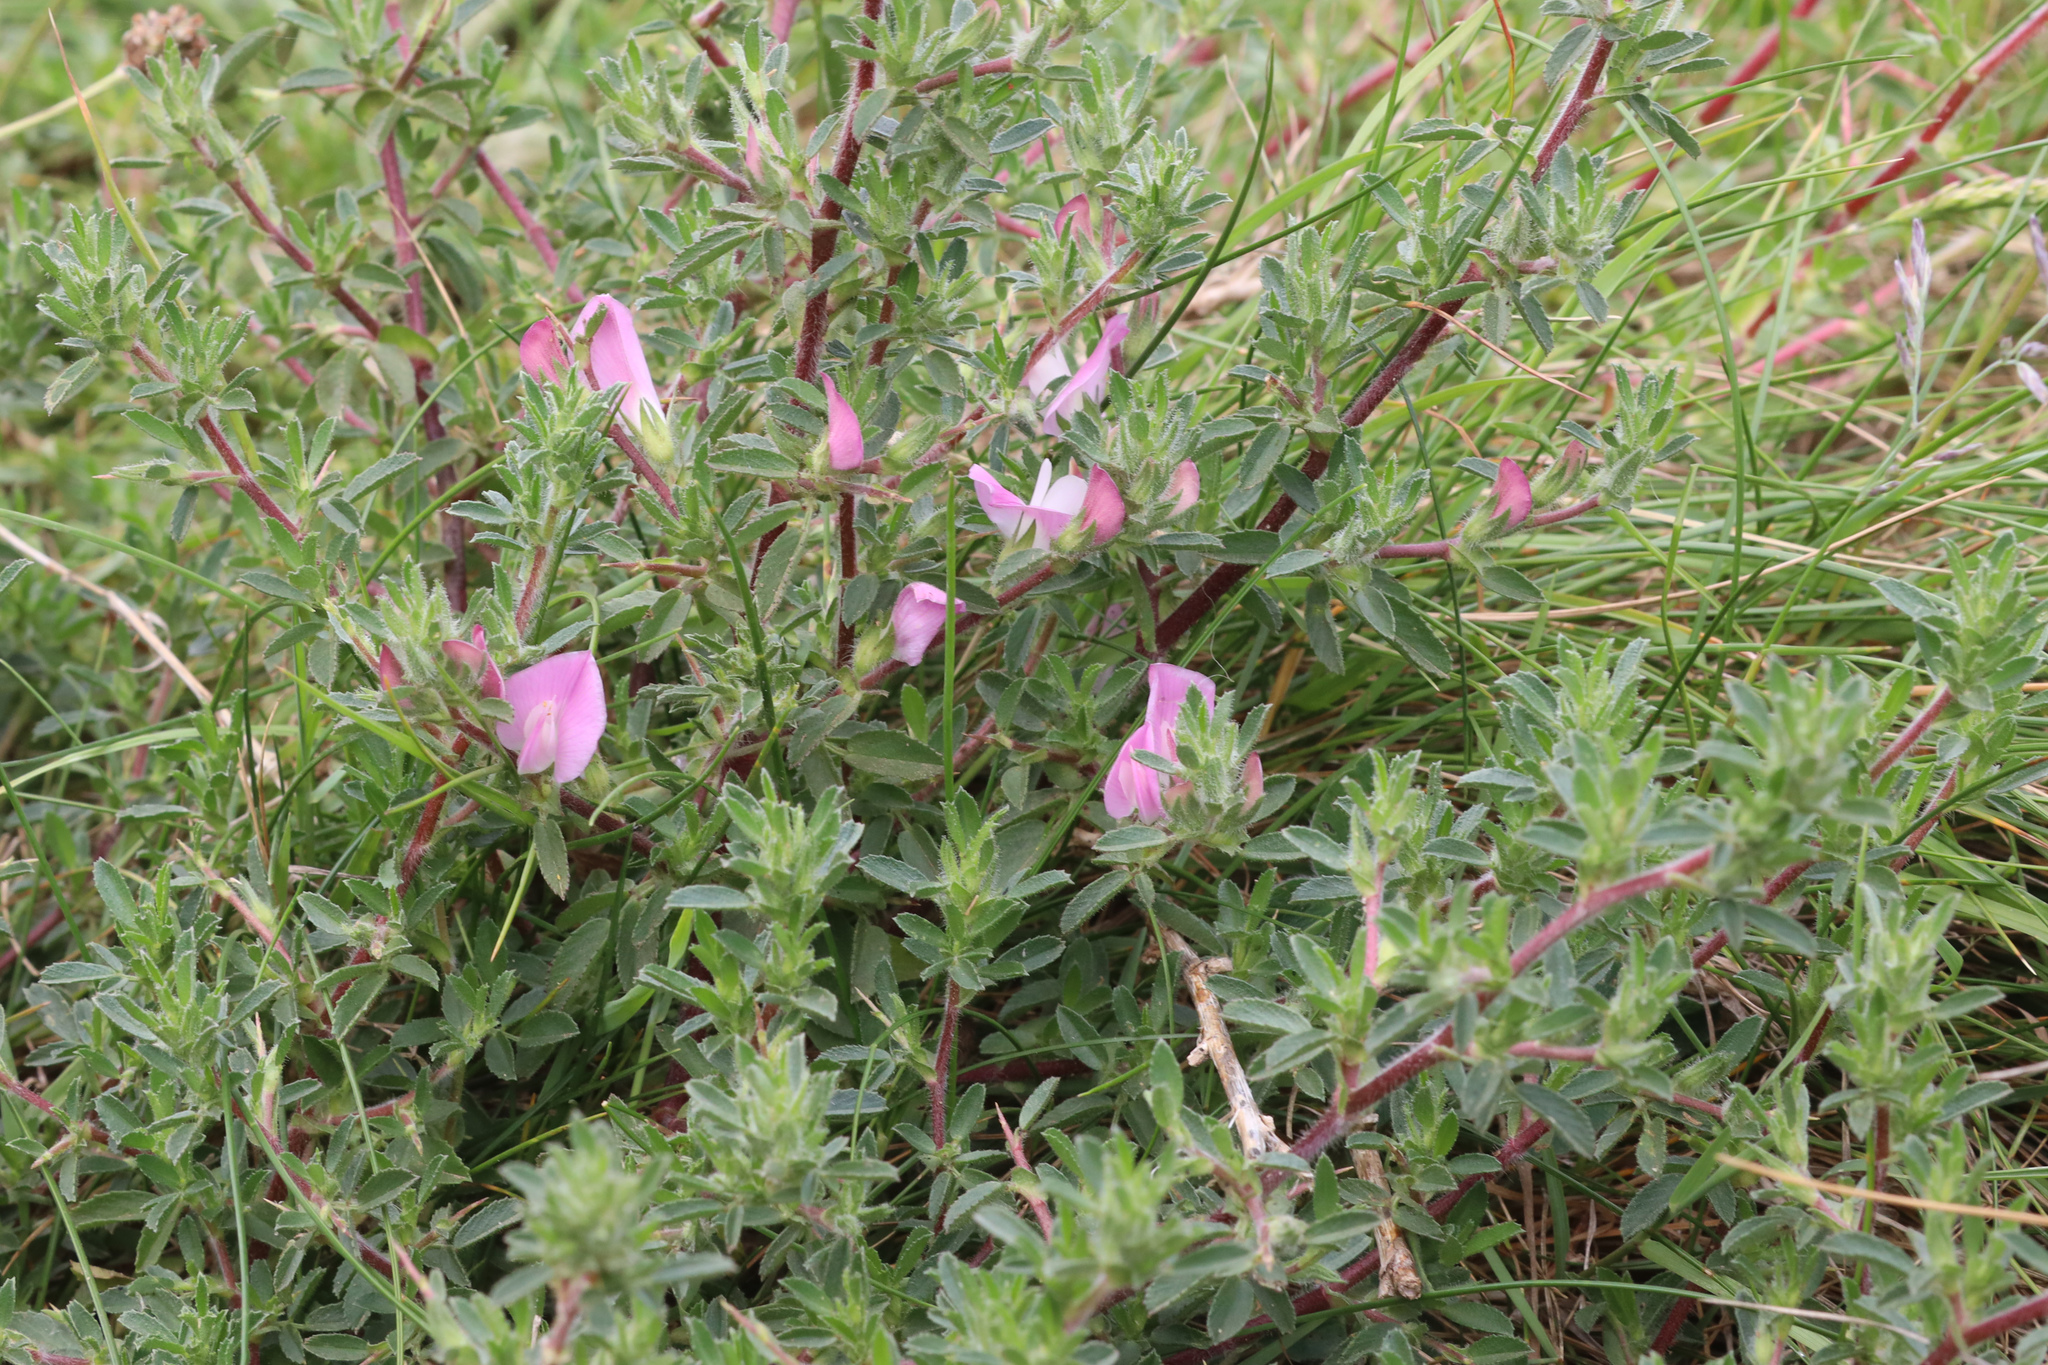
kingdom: Plantae
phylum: Tracheophyta
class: Magnoliopsida
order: Fabales
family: Fabaceae
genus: Ononis
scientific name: Ononis spinosa
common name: Spiny restharrow
